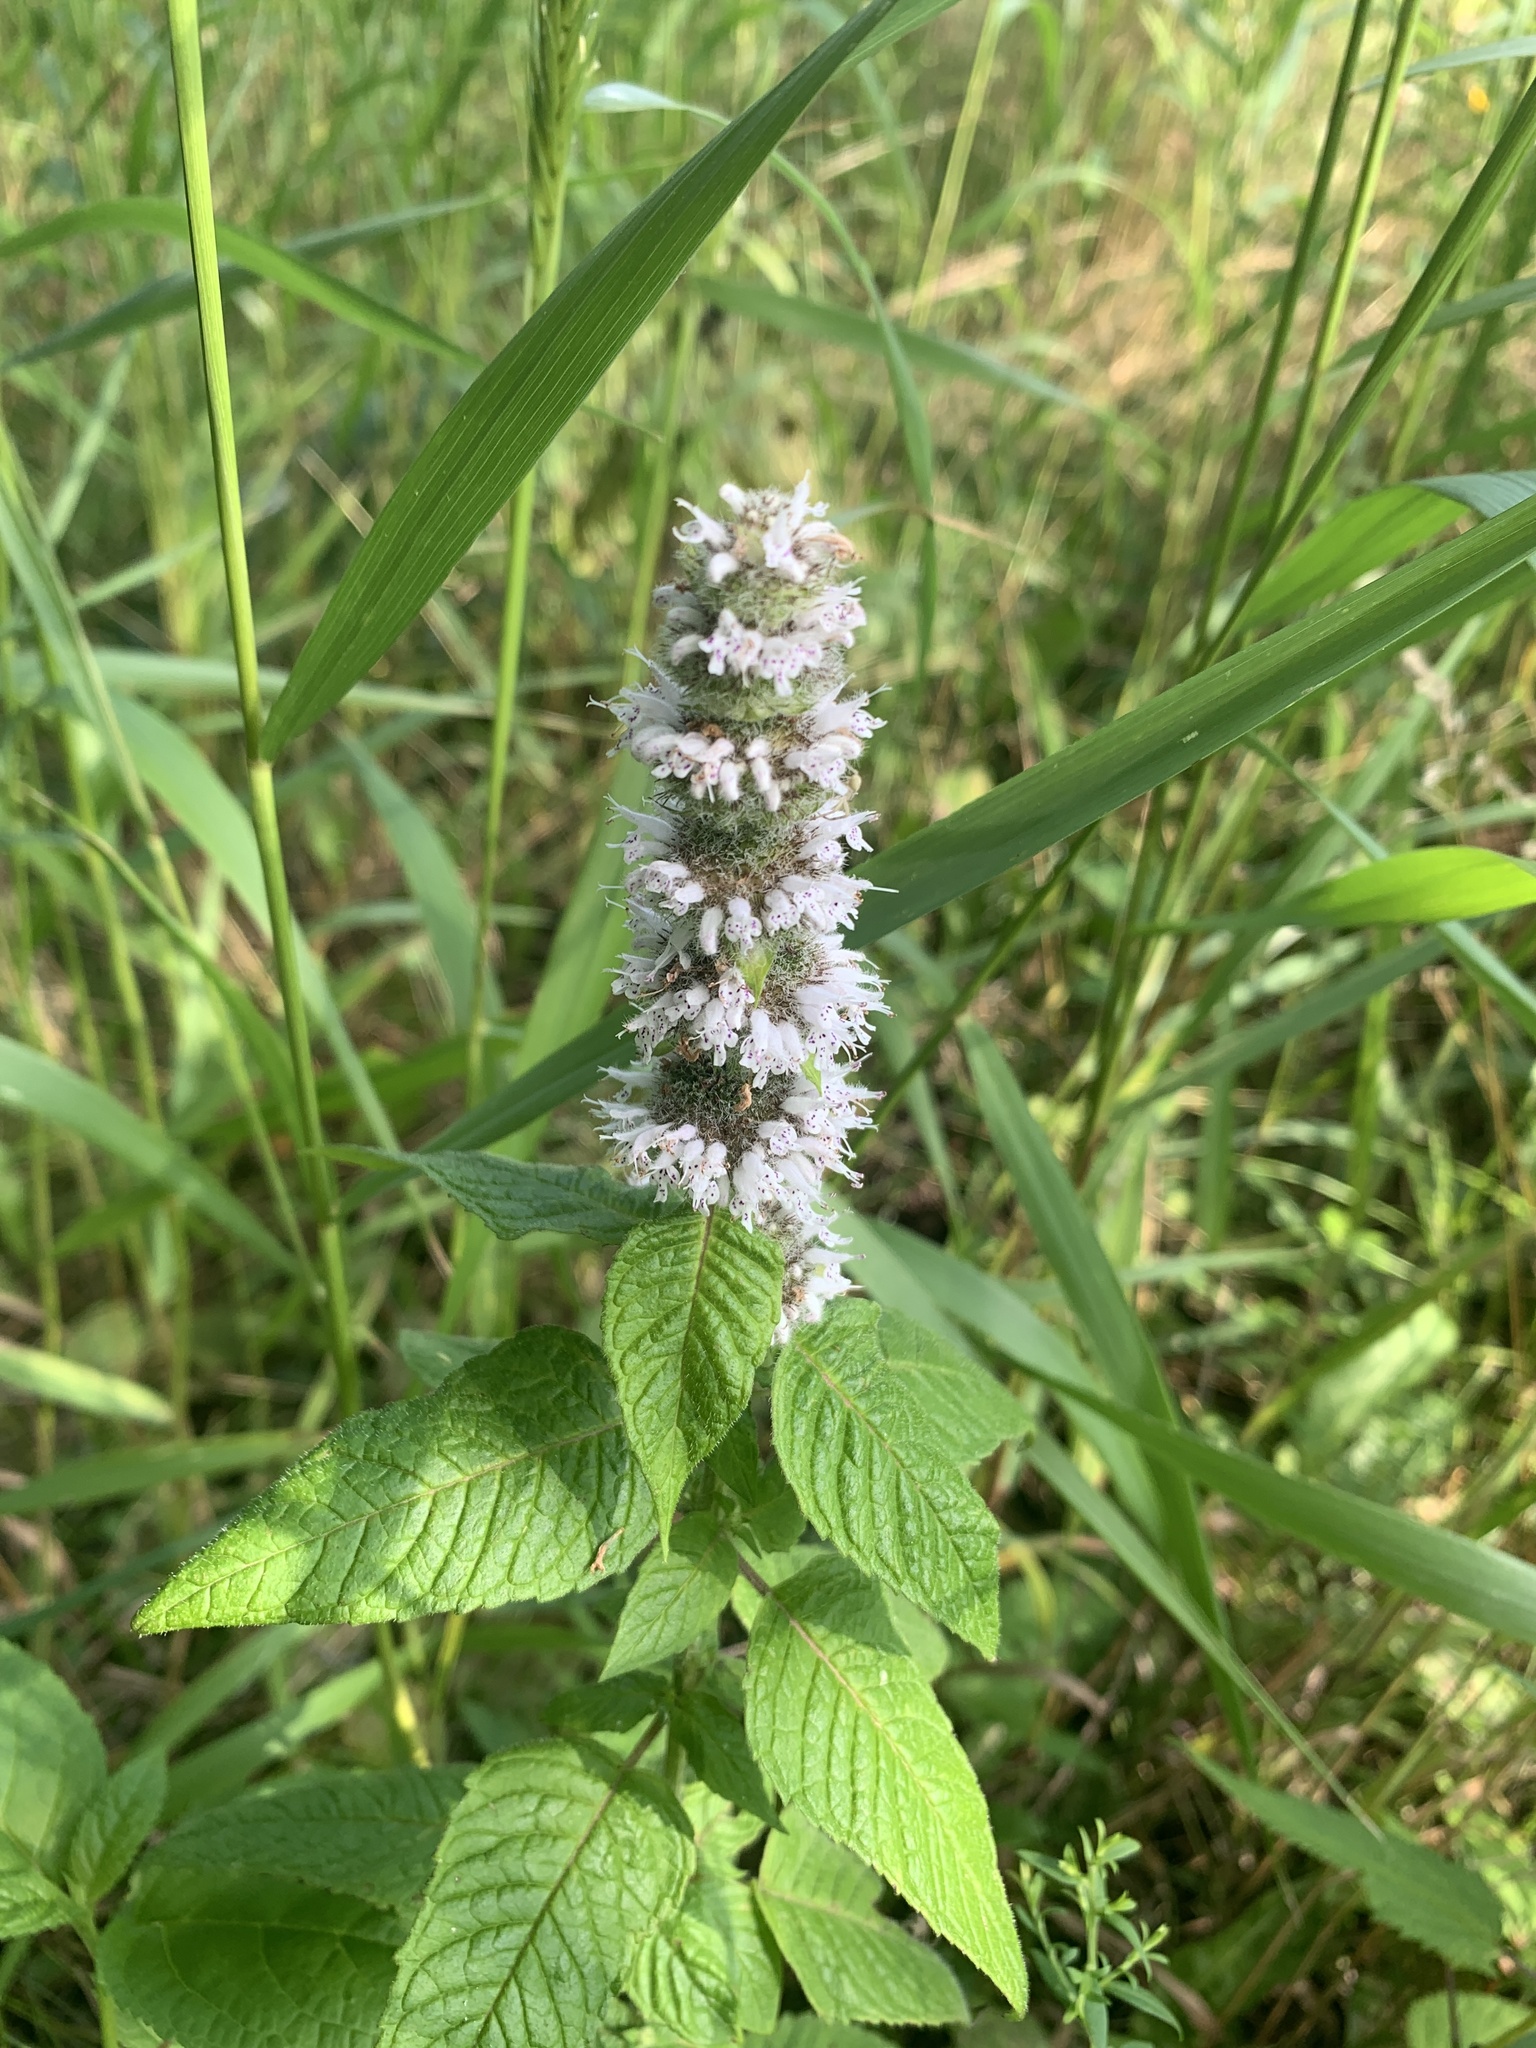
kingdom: Plantae
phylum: Tracheophyta
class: Magnoliopsida
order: Lamiales
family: Lamiaceae
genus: Blephilia
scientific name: Blephilia hirsuta
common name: Hairy blephilia
